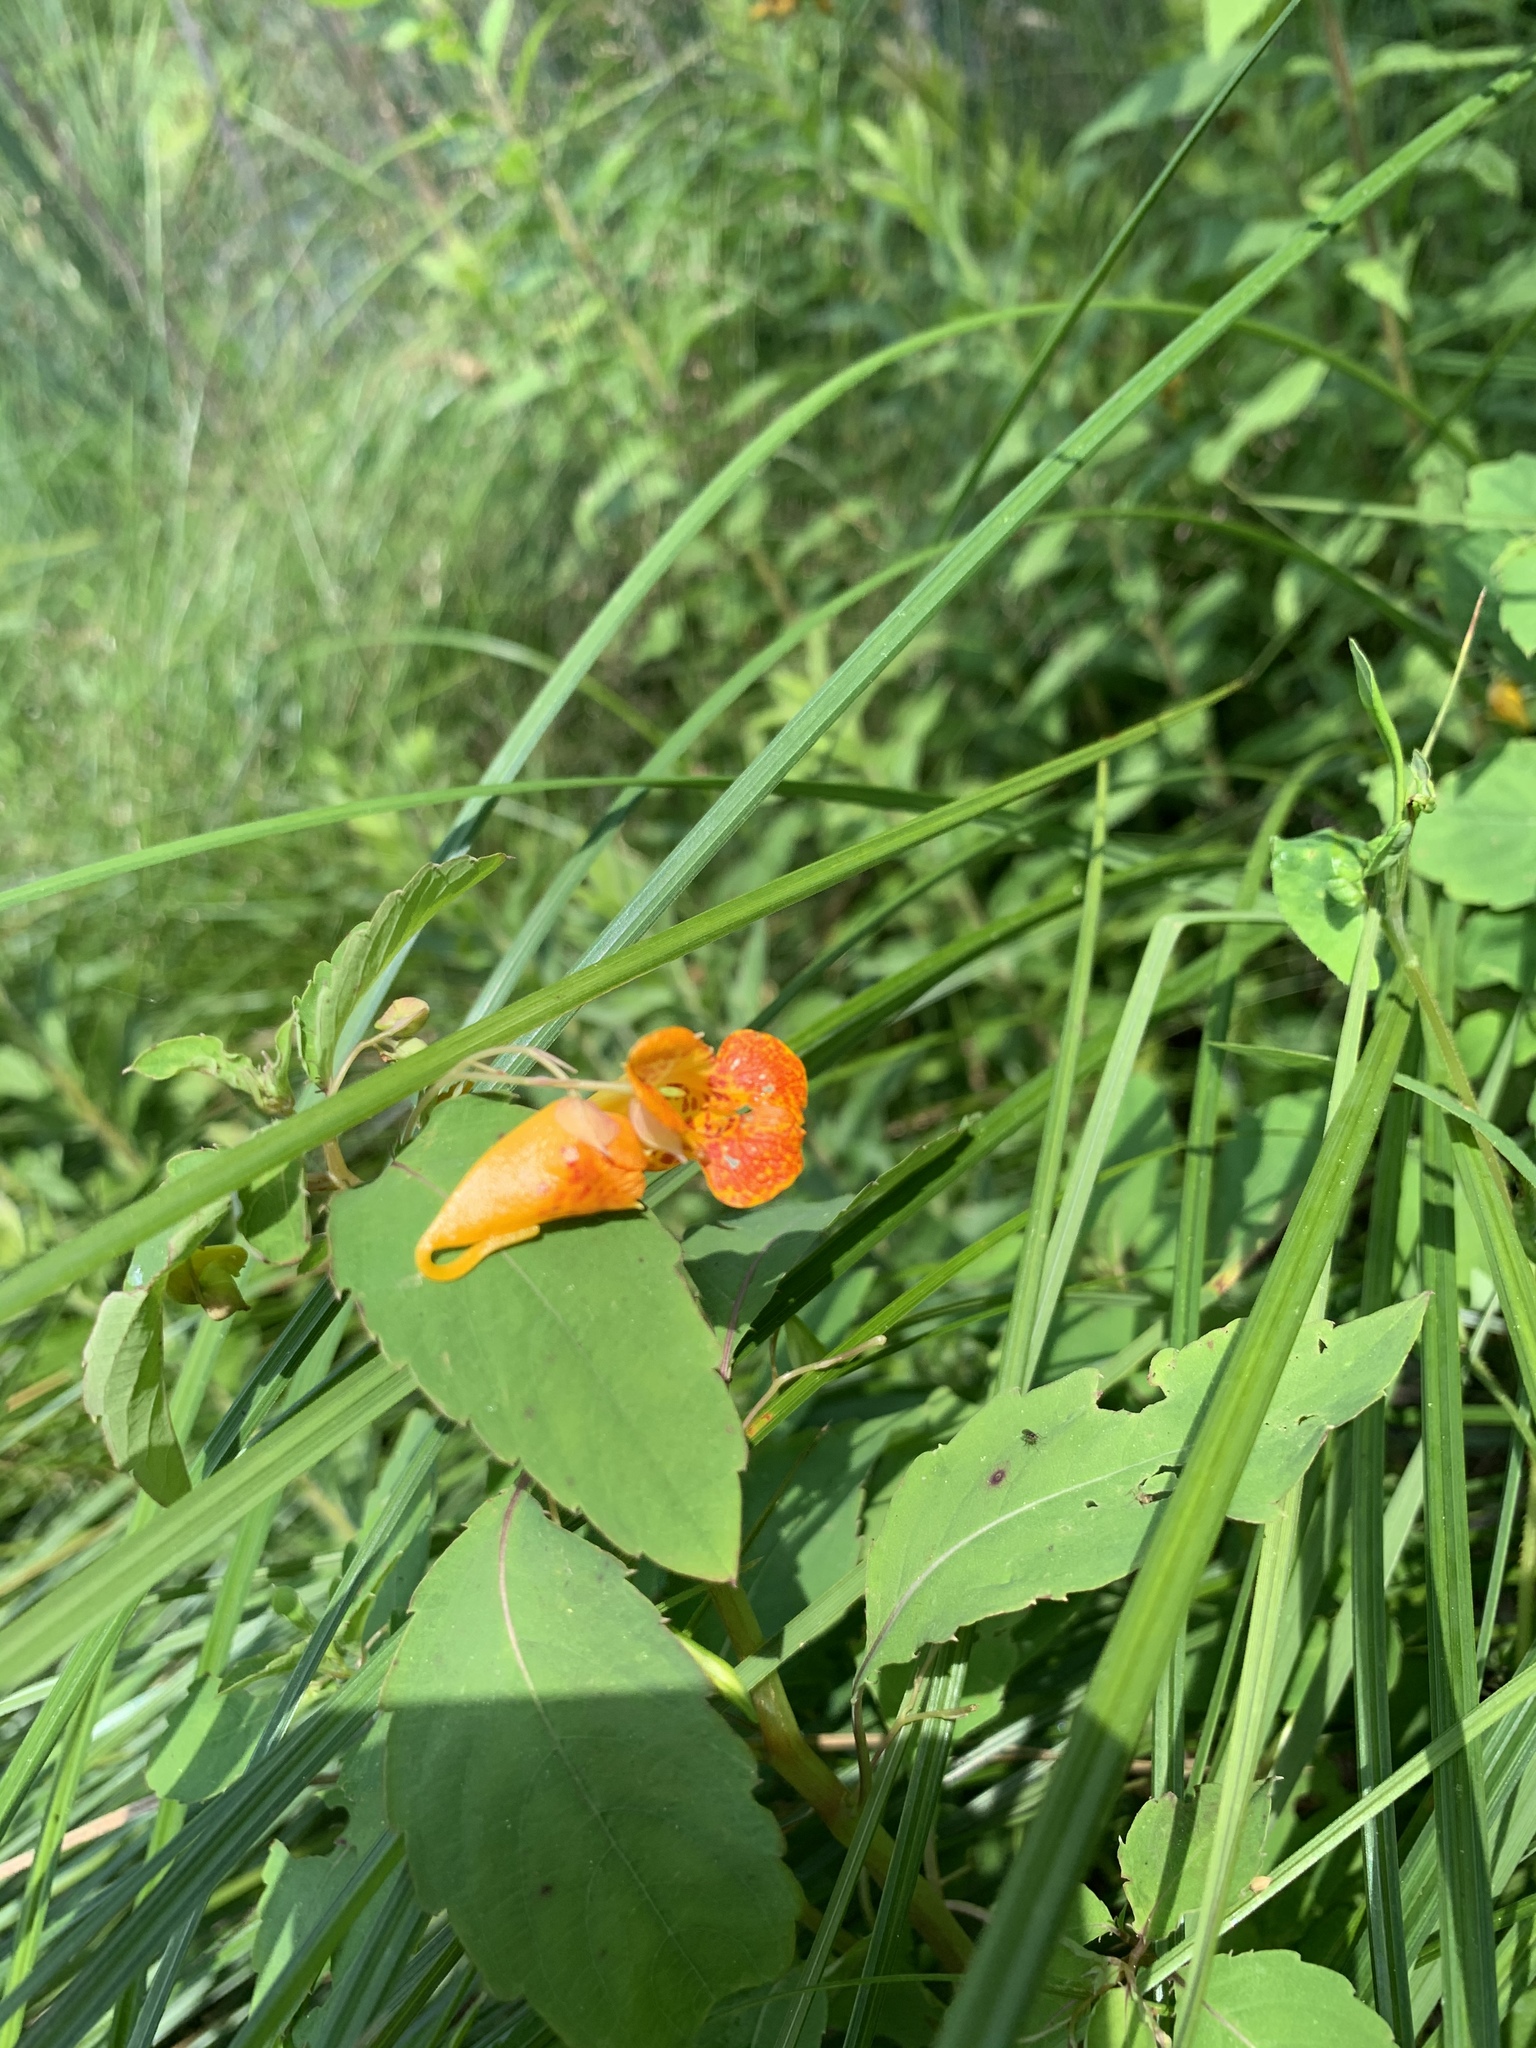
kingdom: Plantae
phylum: Tracheophyta
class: Magnoliopsida
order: Ericales
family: Balsaminaceae
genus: Impatiens
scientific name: Impatiens capensis
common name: Orange balsam
